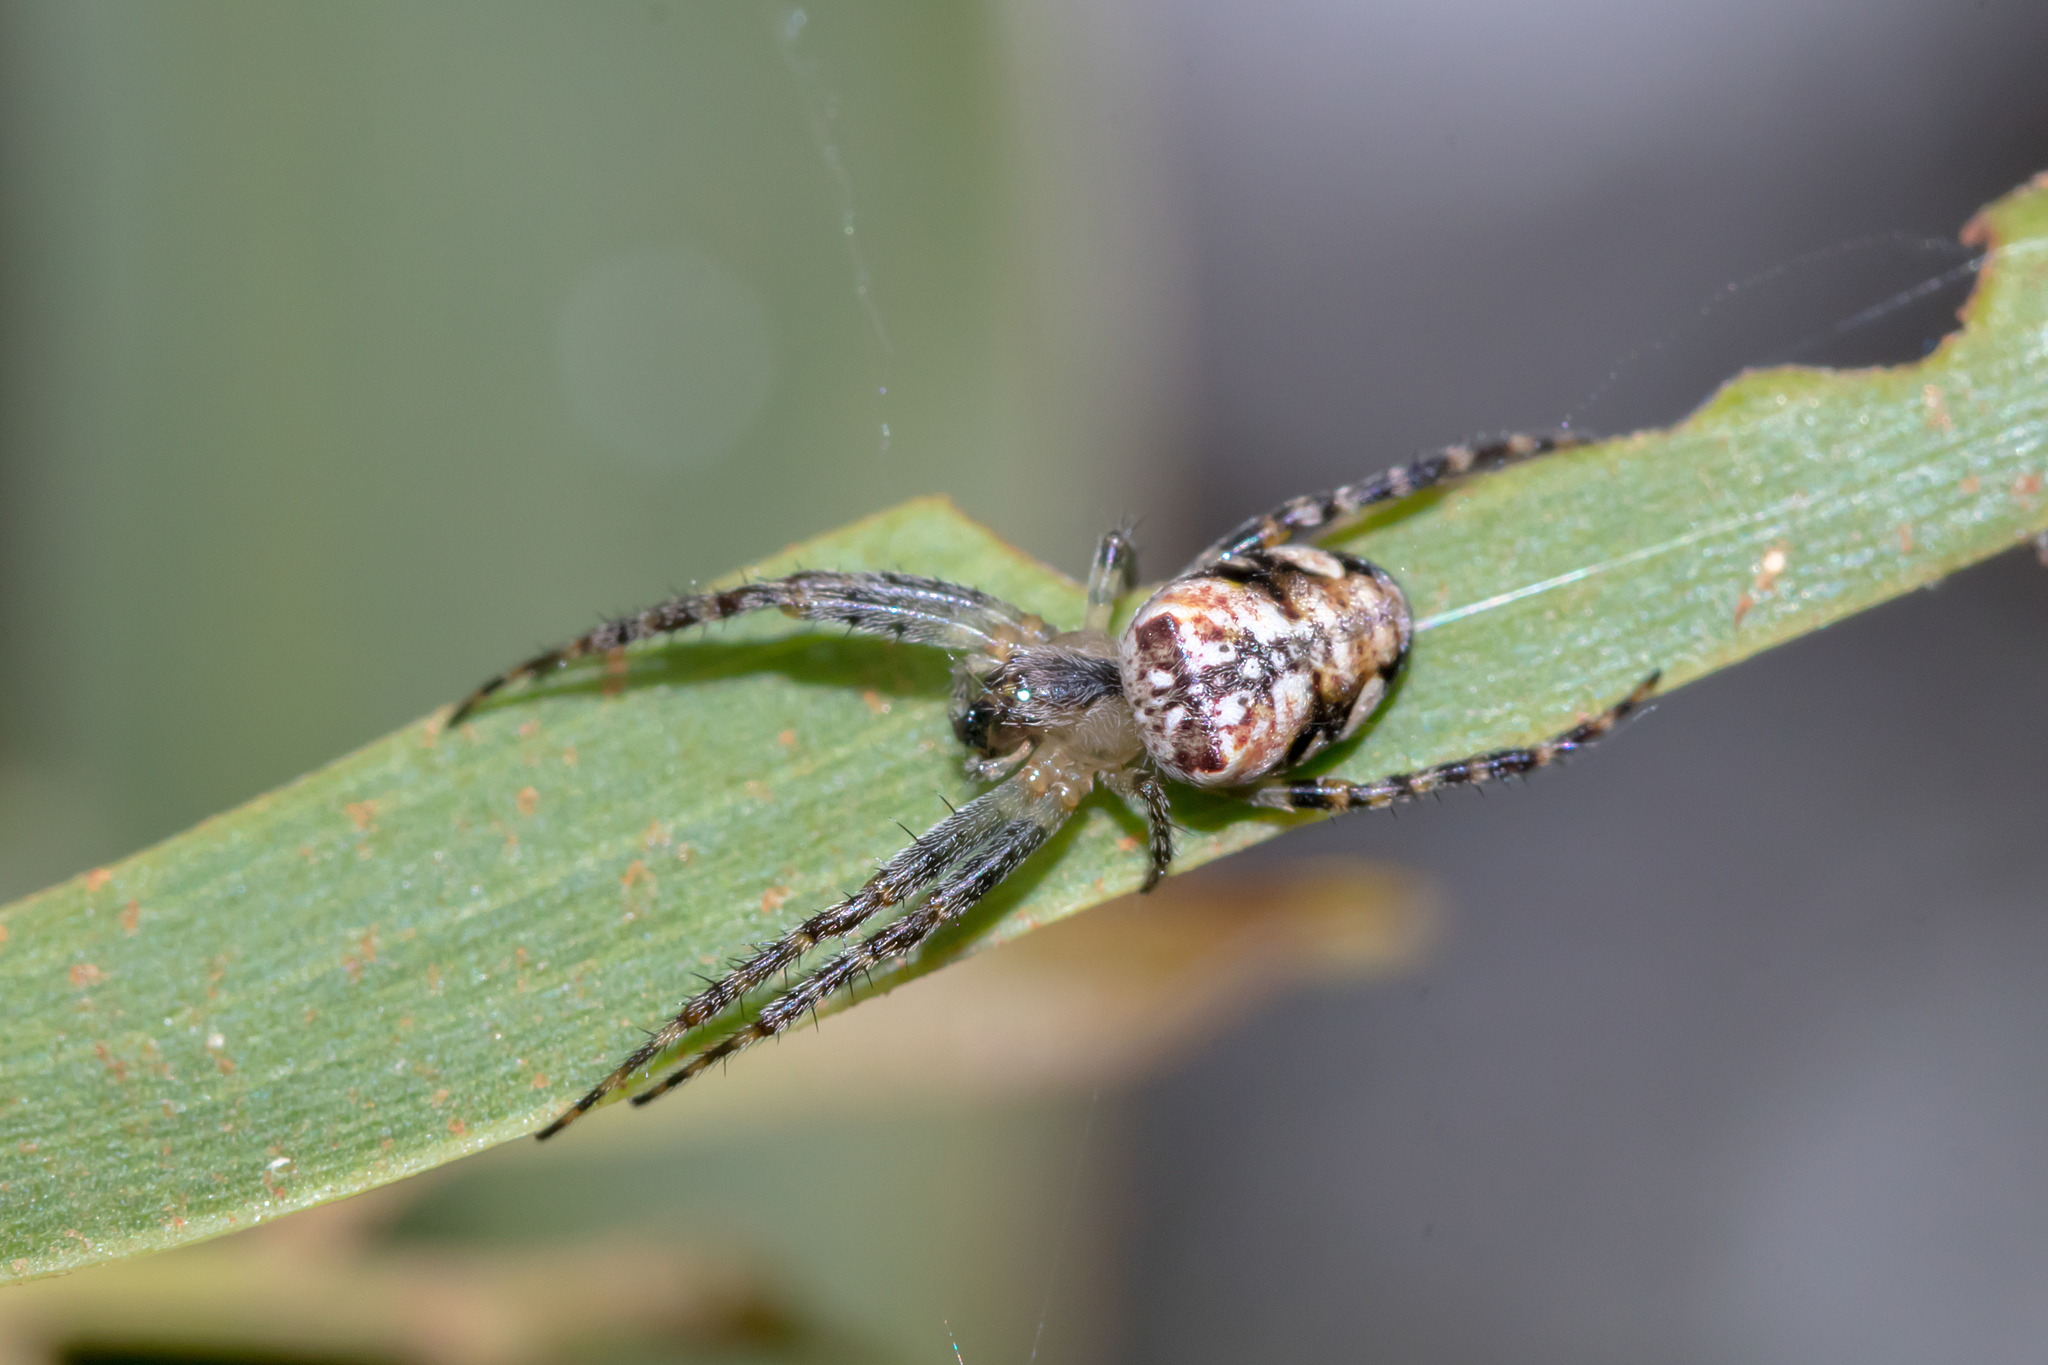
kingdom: Animalia
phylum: Arthropoda
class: Arachnida
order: Araneae
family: Araneidae
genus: Plebs
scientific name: Plebs eburnus
